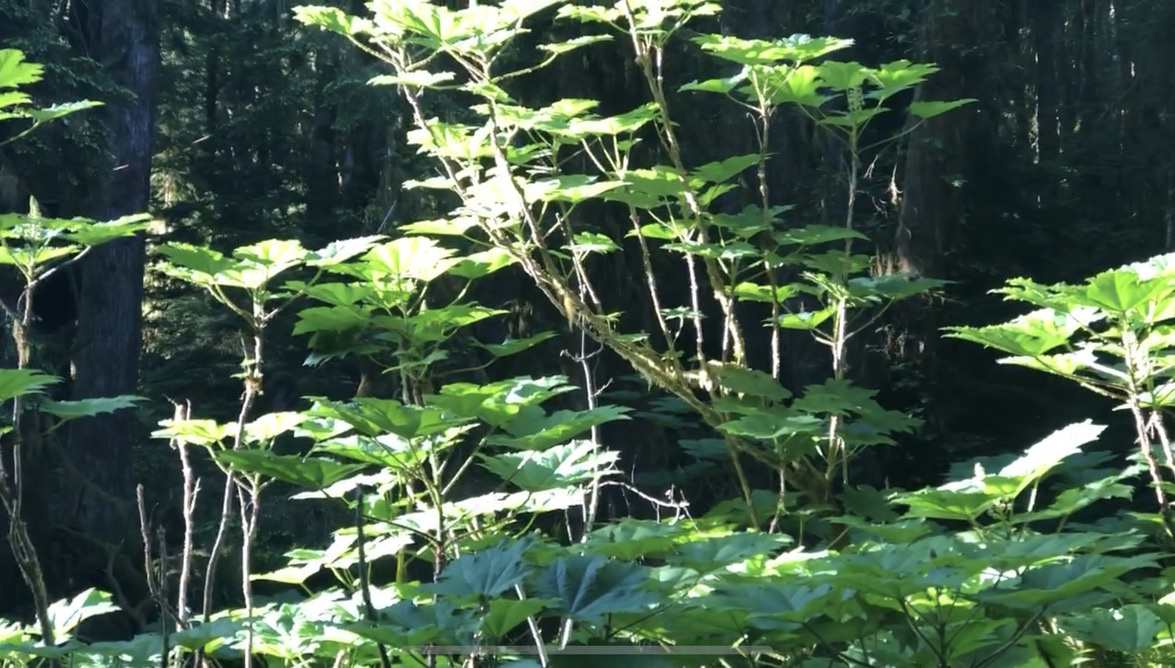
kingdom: Plantae
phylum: Tracheophyta
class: Magnoliopsida
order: Apiales
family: Araliaceae
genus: Oplopanax
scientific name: Oplopanax horridus
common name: Devil's walking-stick
